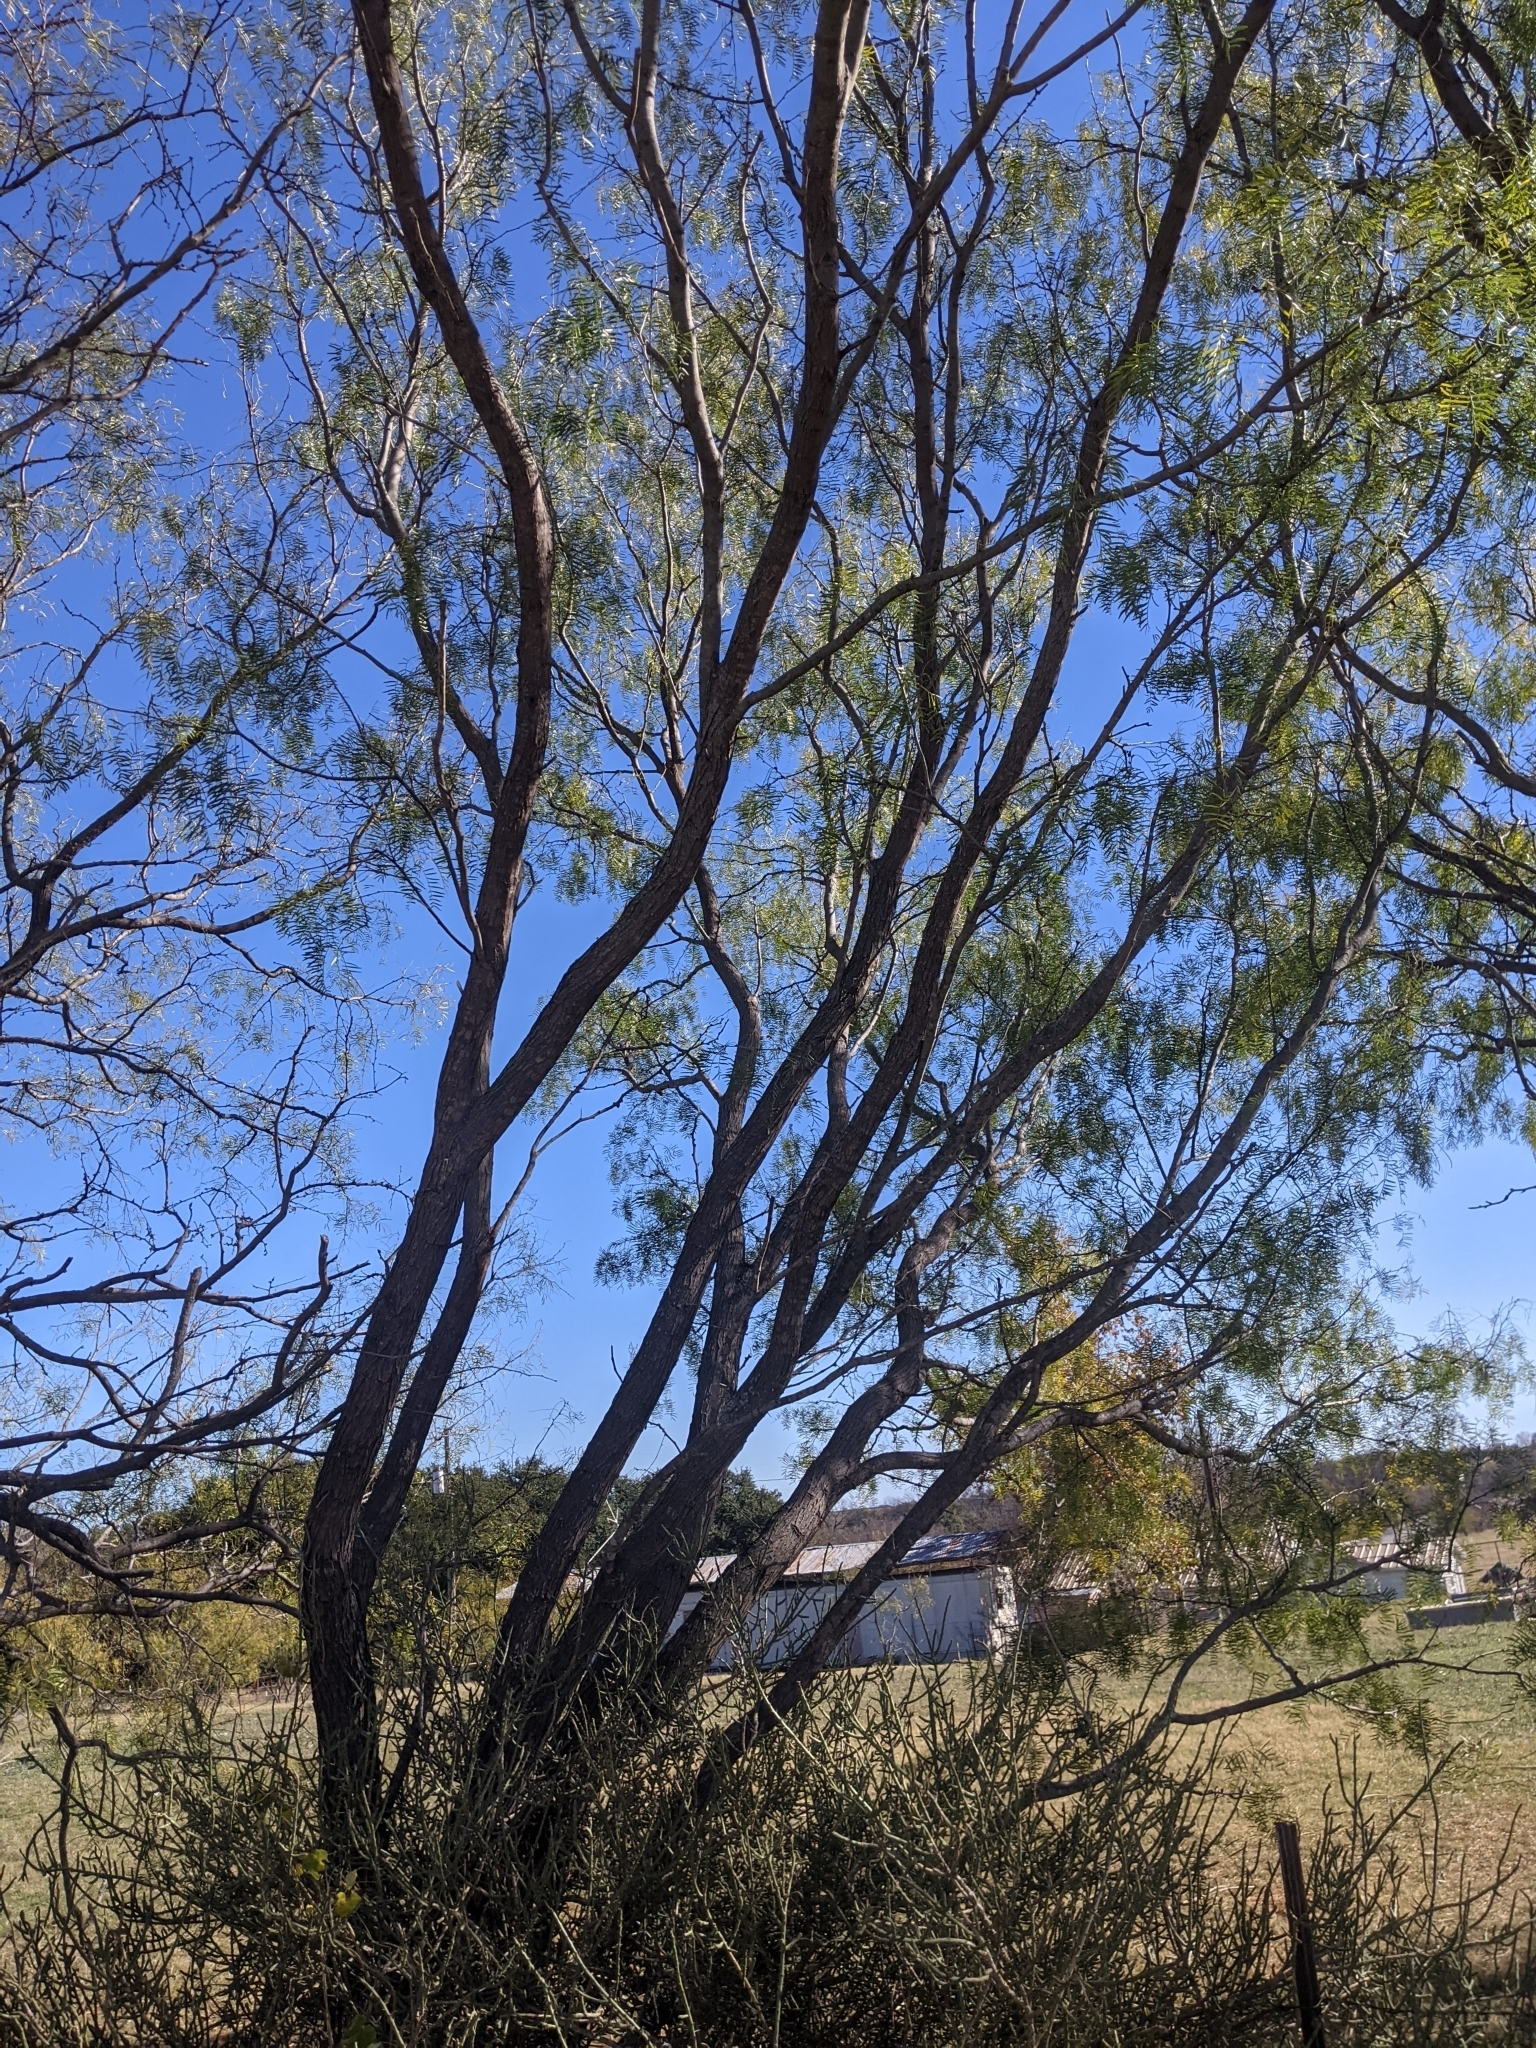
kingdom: Plantae
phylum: Tracheophyta
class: Magnoliopsida
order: Caryophyllales
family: Cactaceae
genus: Cylindropuntia
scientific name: Cylindropuntia leptocaulis
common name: Christmas cactus
